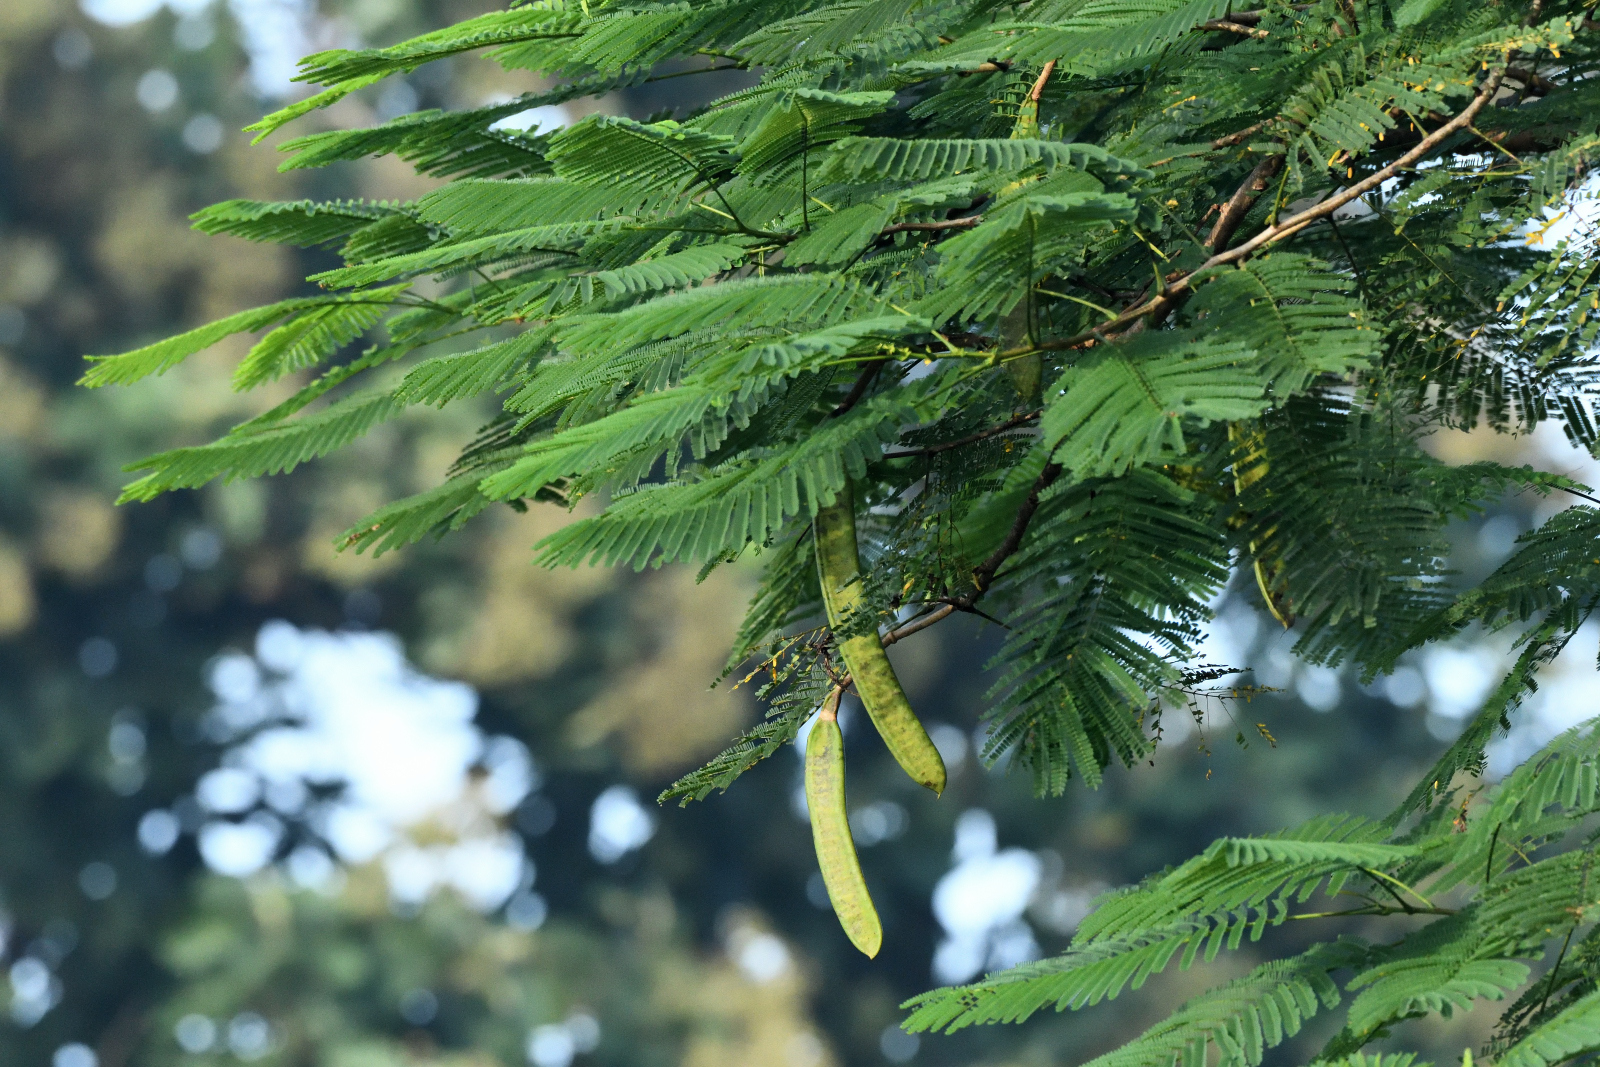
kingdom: Plantae
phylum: Tracheophyta
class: Magnoliopsida
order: Fabales
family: Fabaceae
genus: Delonix
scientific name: Delonix regia
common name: Royal poinciana
